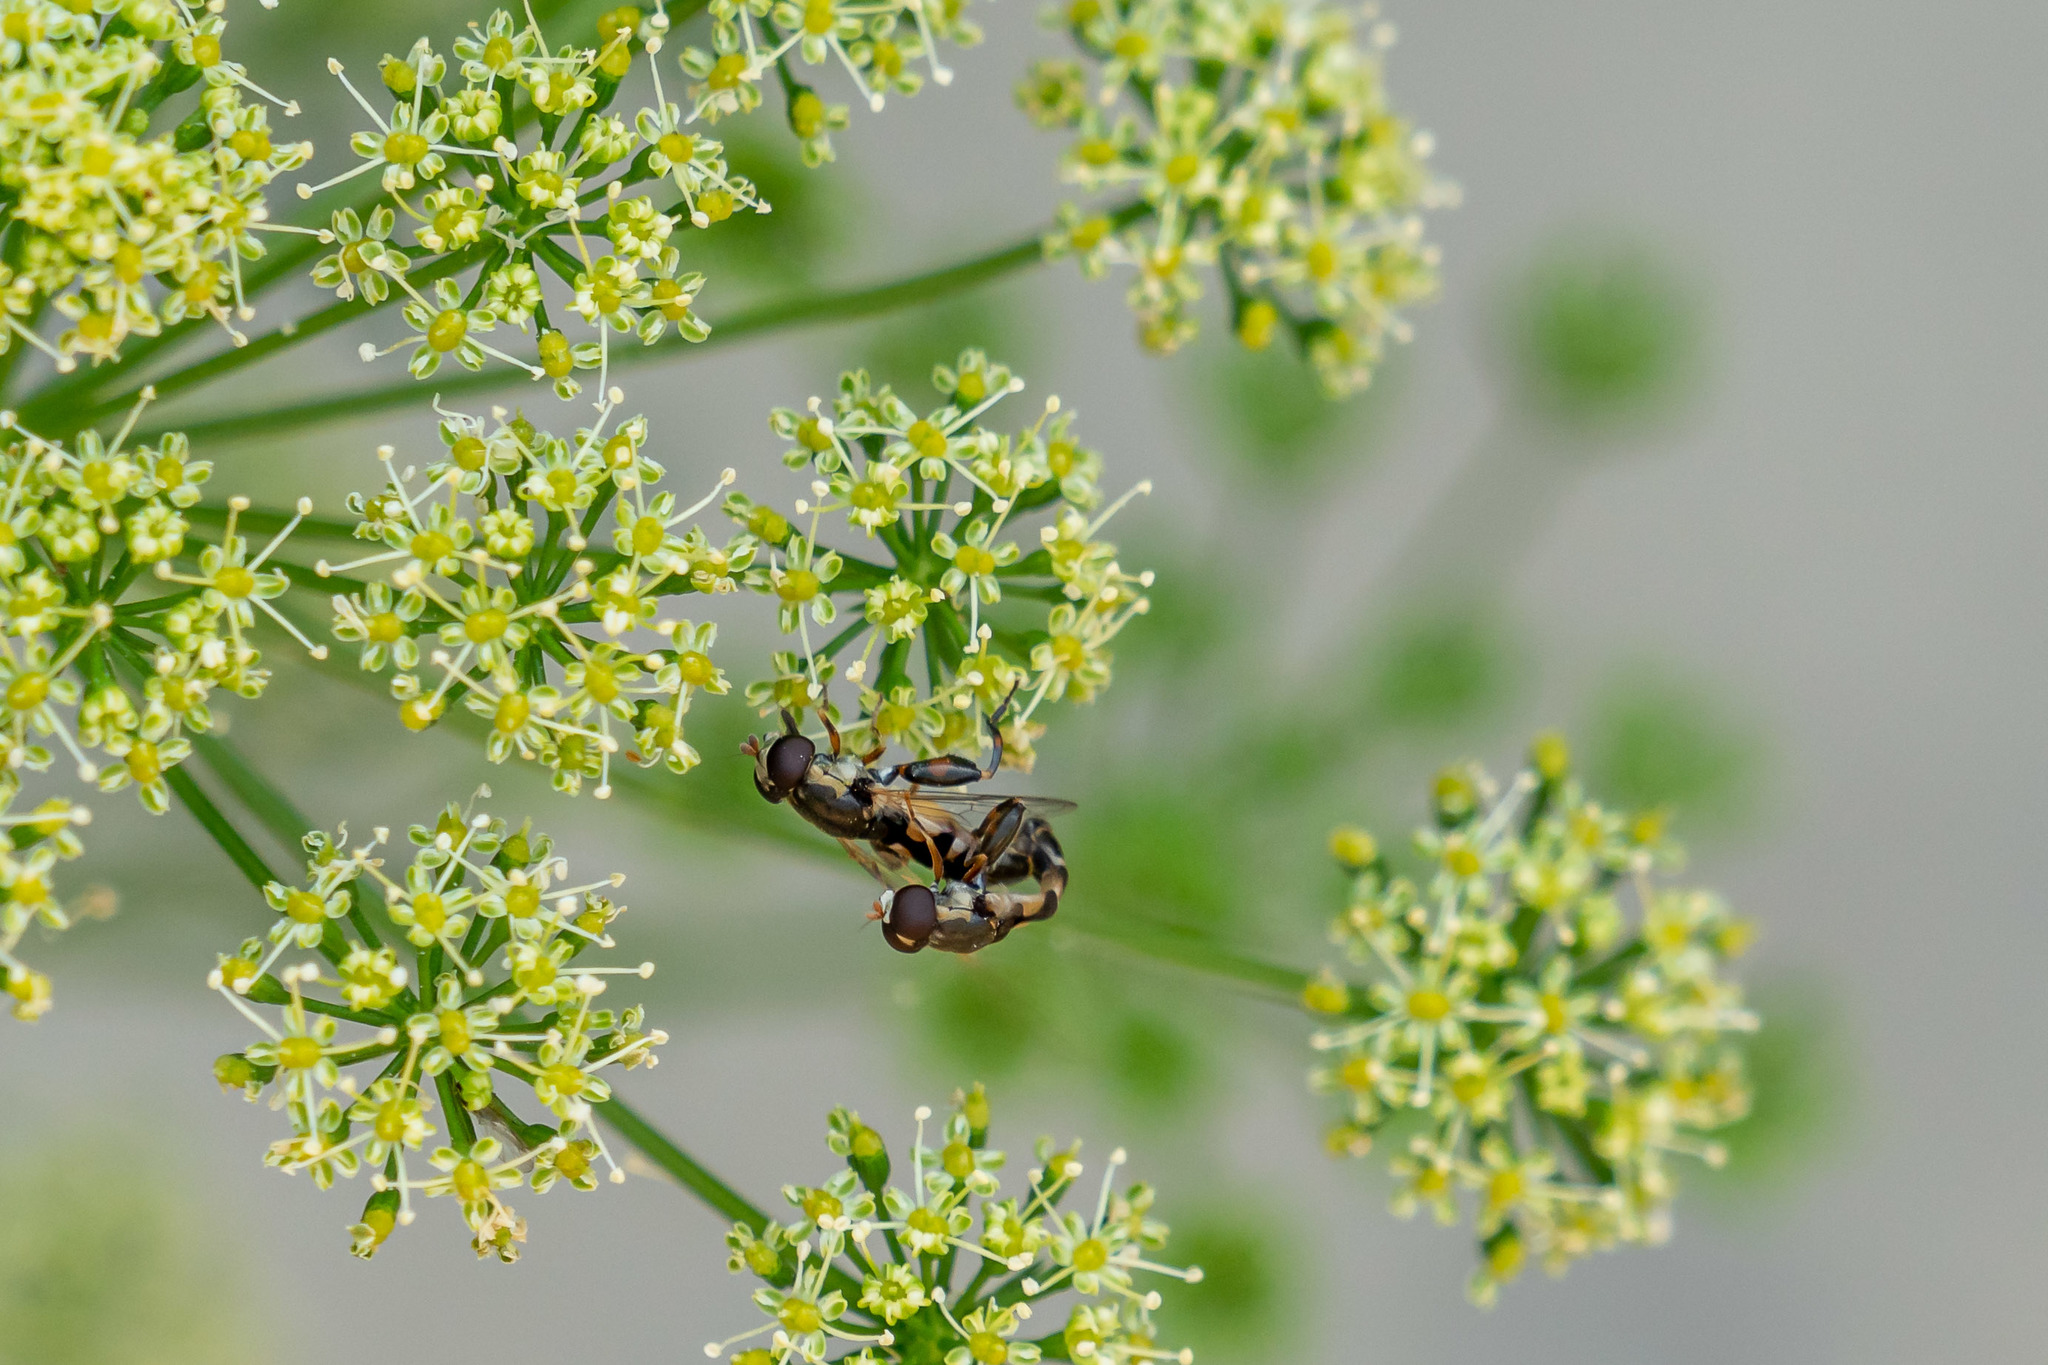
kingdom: Animalia
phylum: Arthropoda
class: Insecta
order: Diptera
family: Syrphidae
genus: Syritta
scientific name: Syritta pipiens
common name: Hover fly
